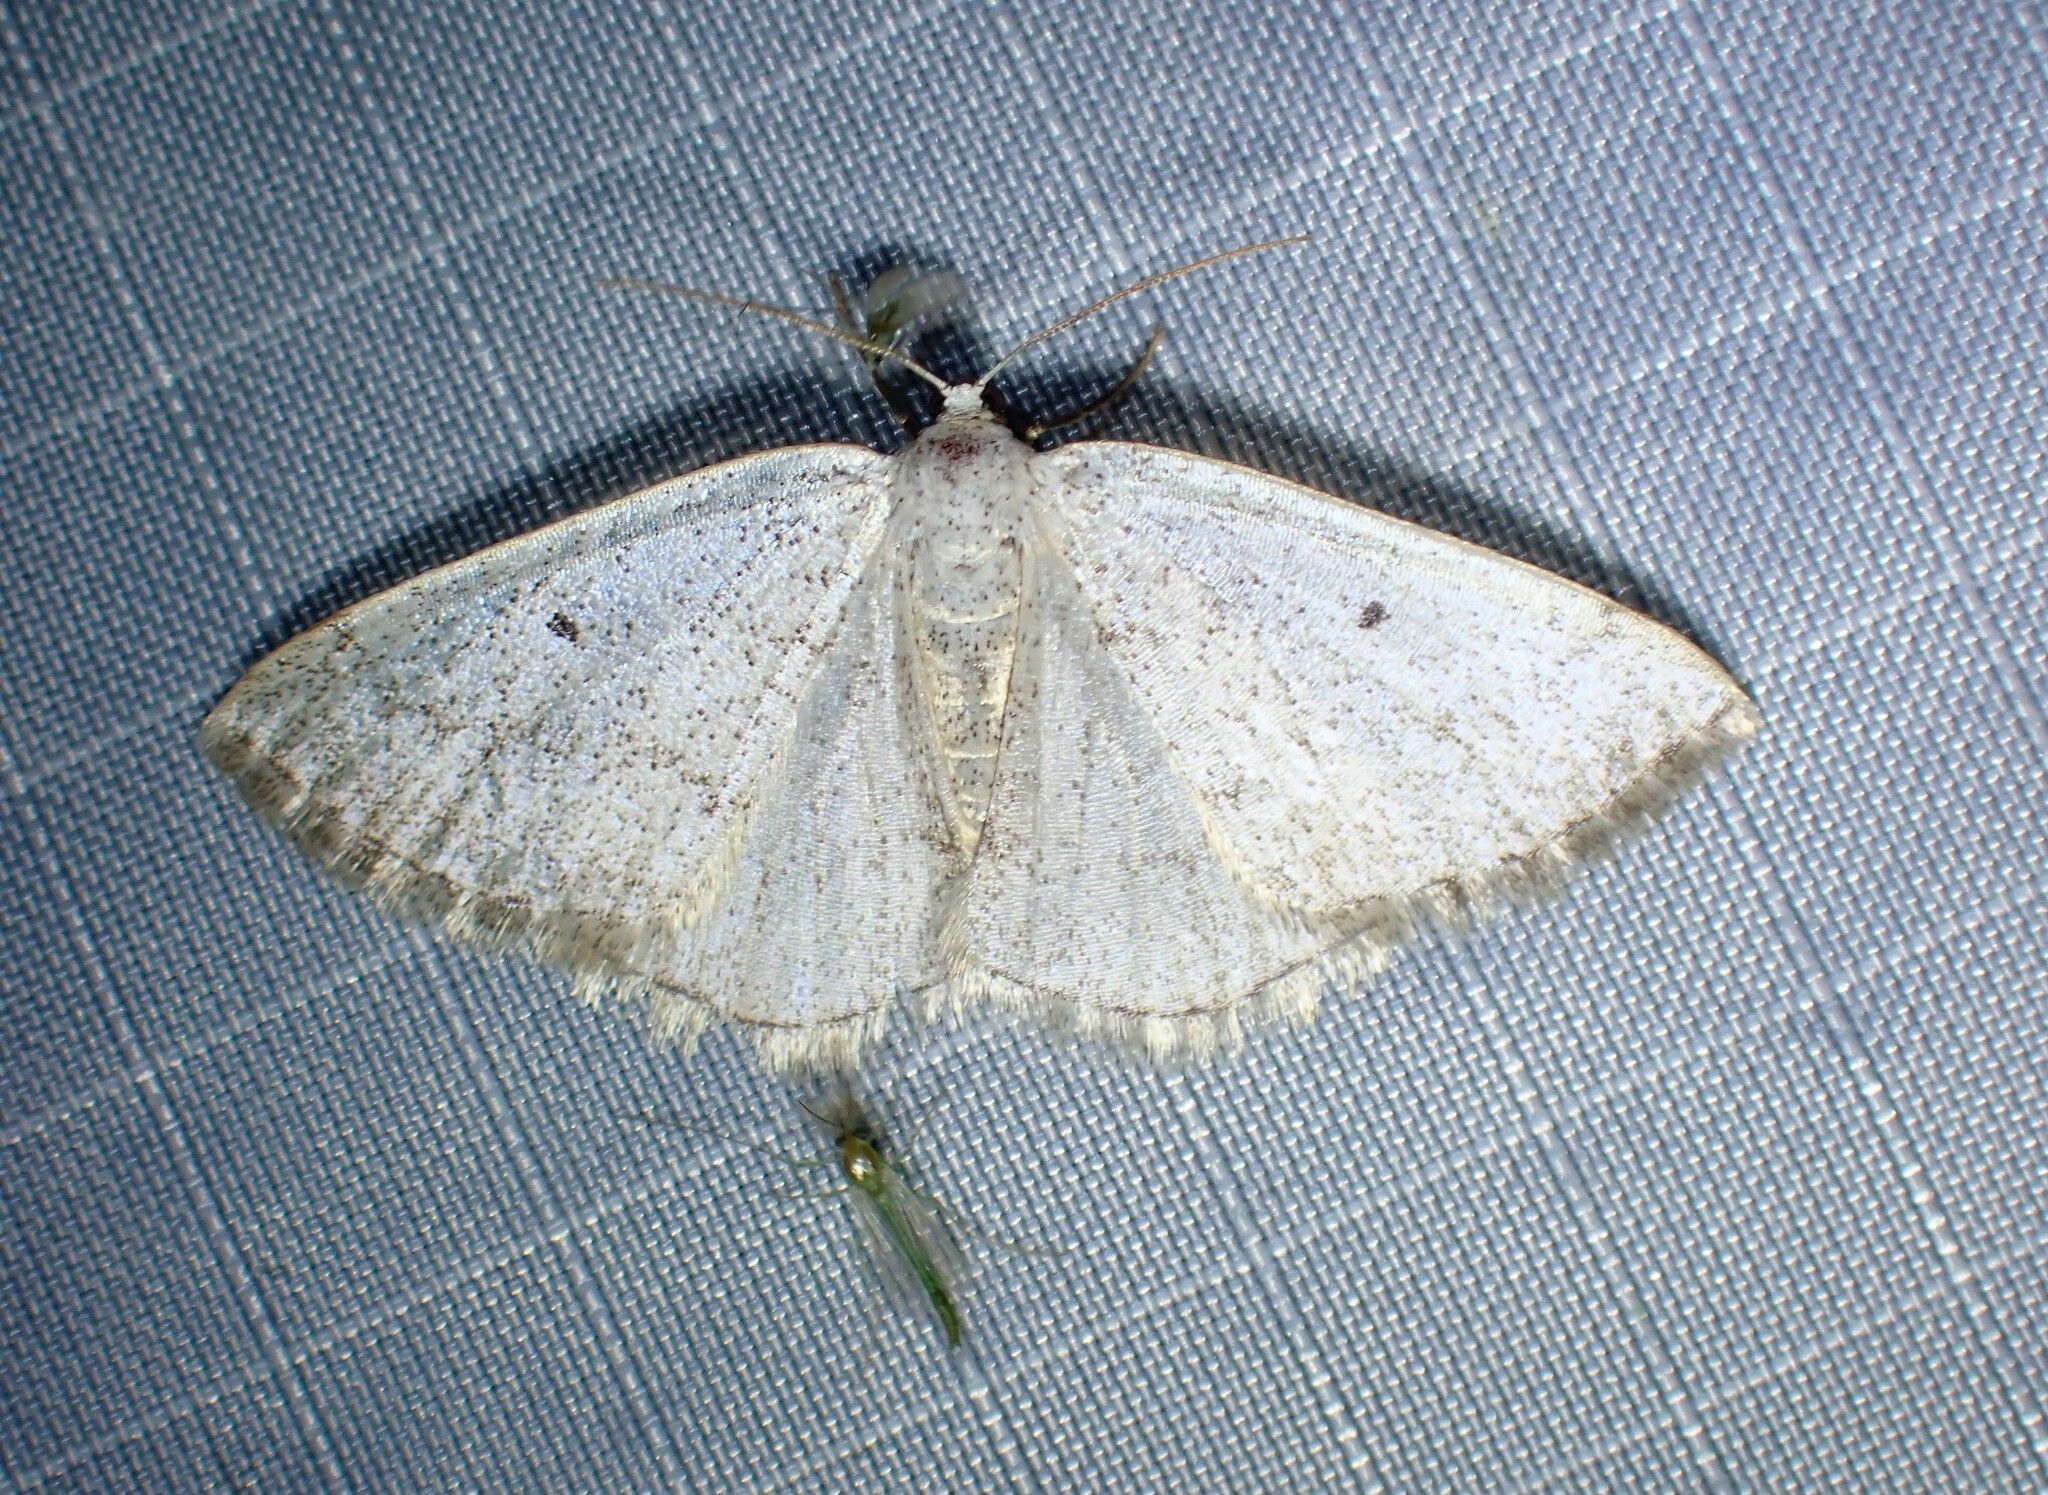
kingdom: Animalia
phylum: Arthropoda
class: Insecta
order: Lepidoptera
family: Geometridae
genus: Lomographa
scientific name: Lomographa glomeraria
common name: Gray spring moth
